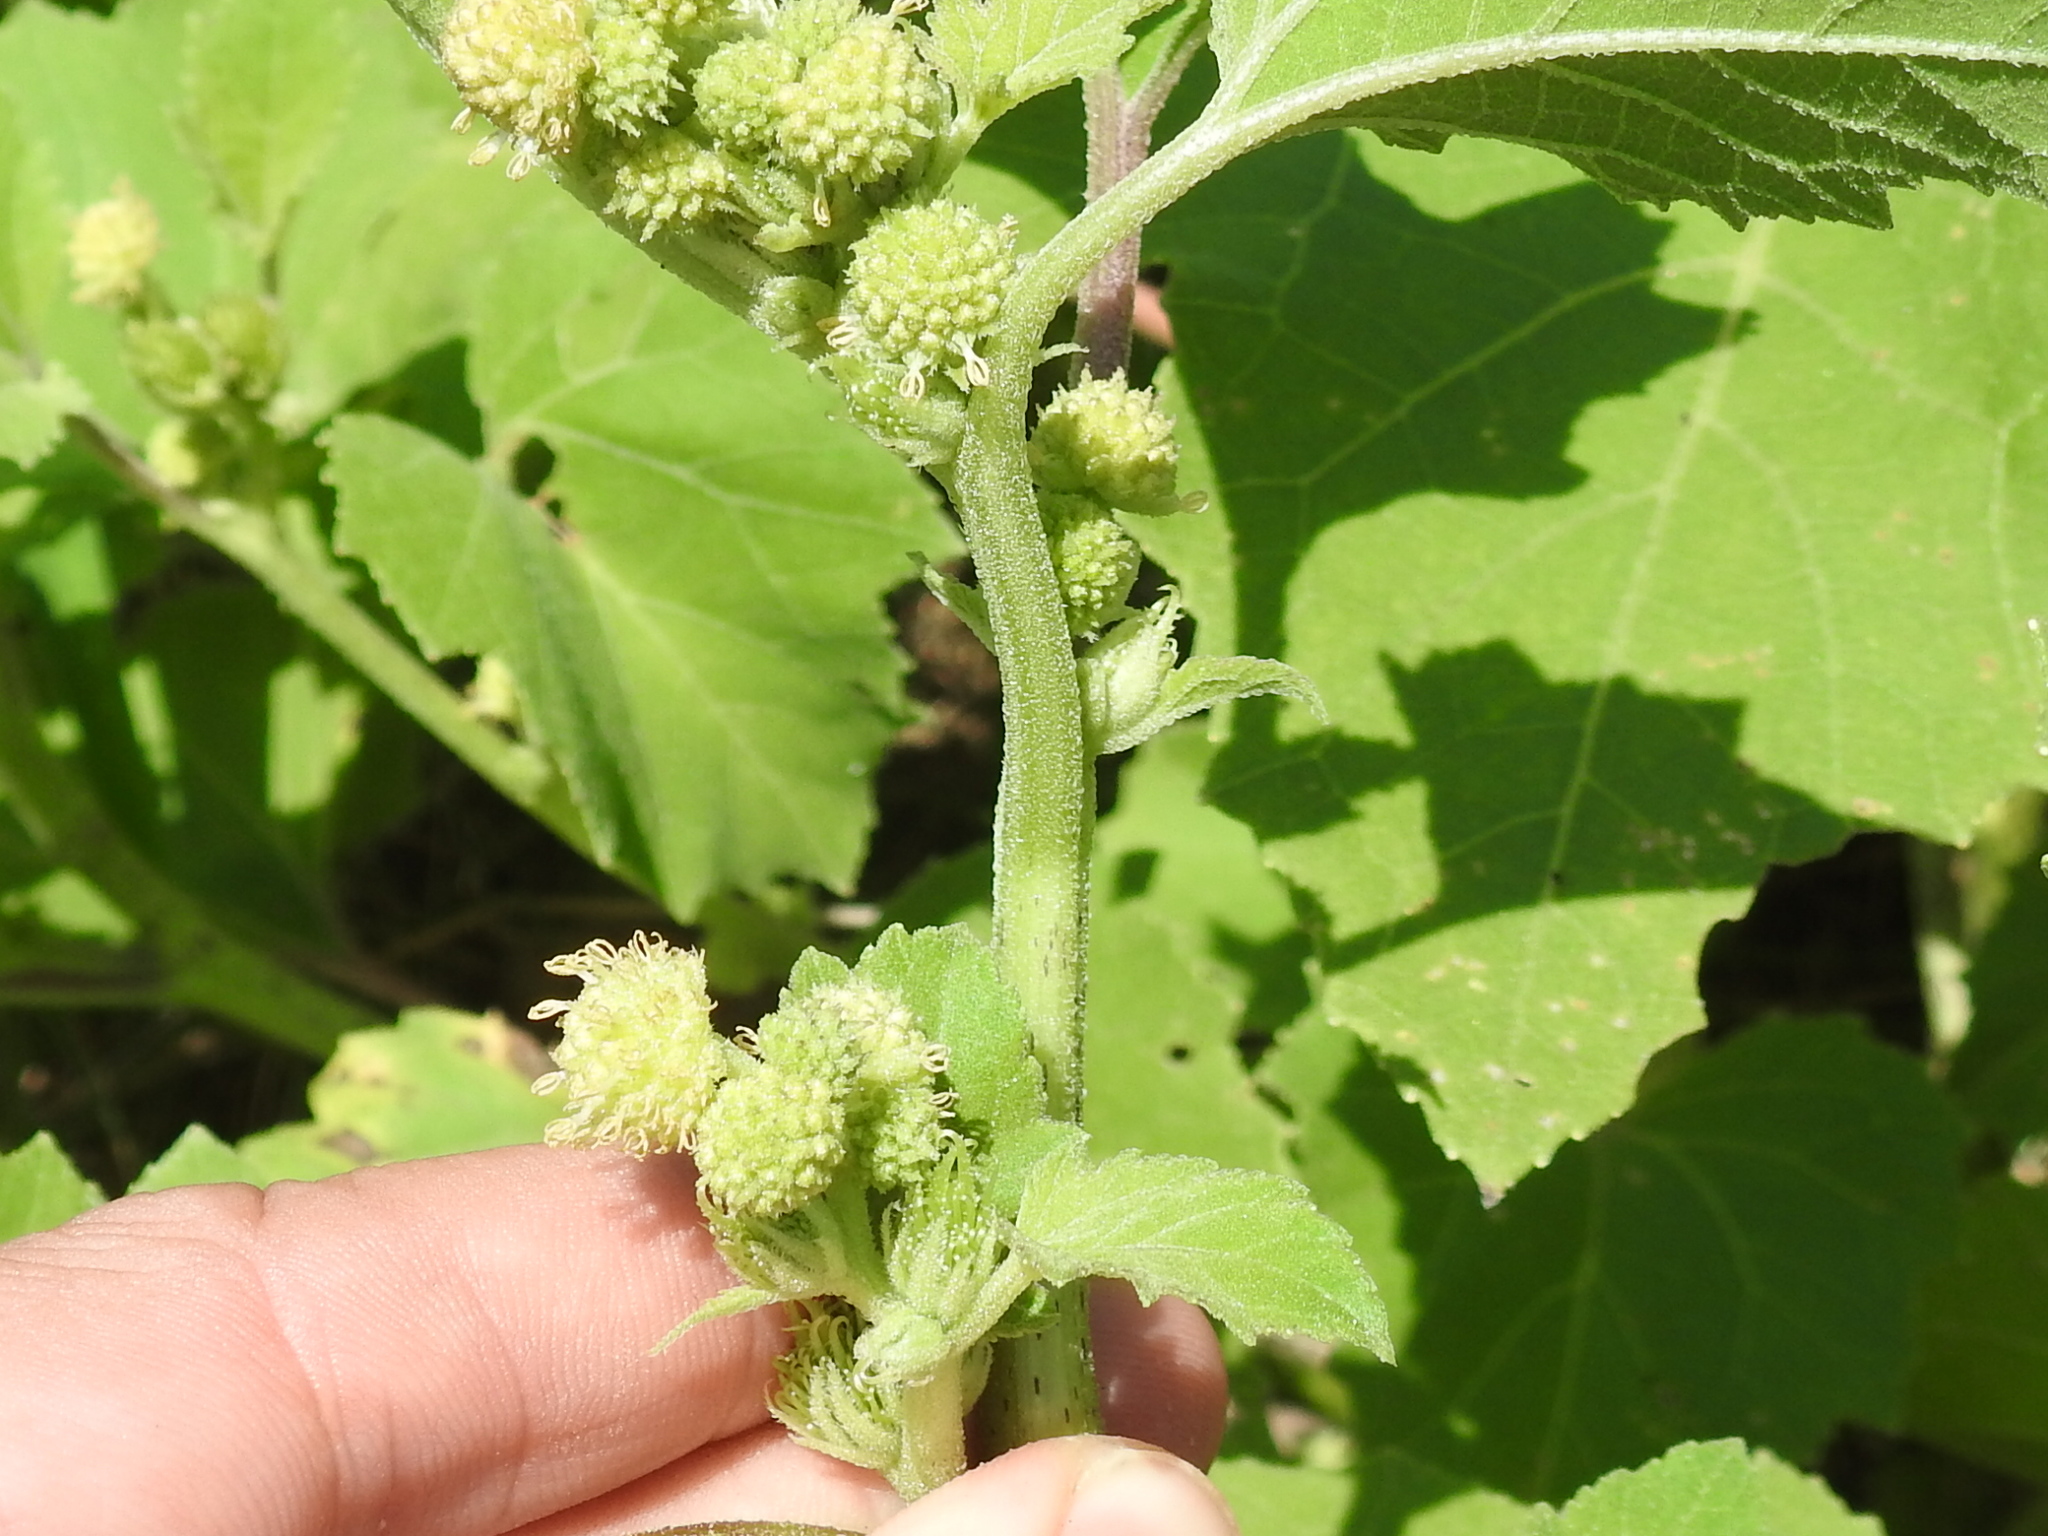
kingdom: Plantae
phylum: Tracheophyta
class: Magnoliopsida
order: Asterales
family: Asteraceae
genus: Xanthium
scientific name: Xanthium strumarium
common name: Rough cocklebur
